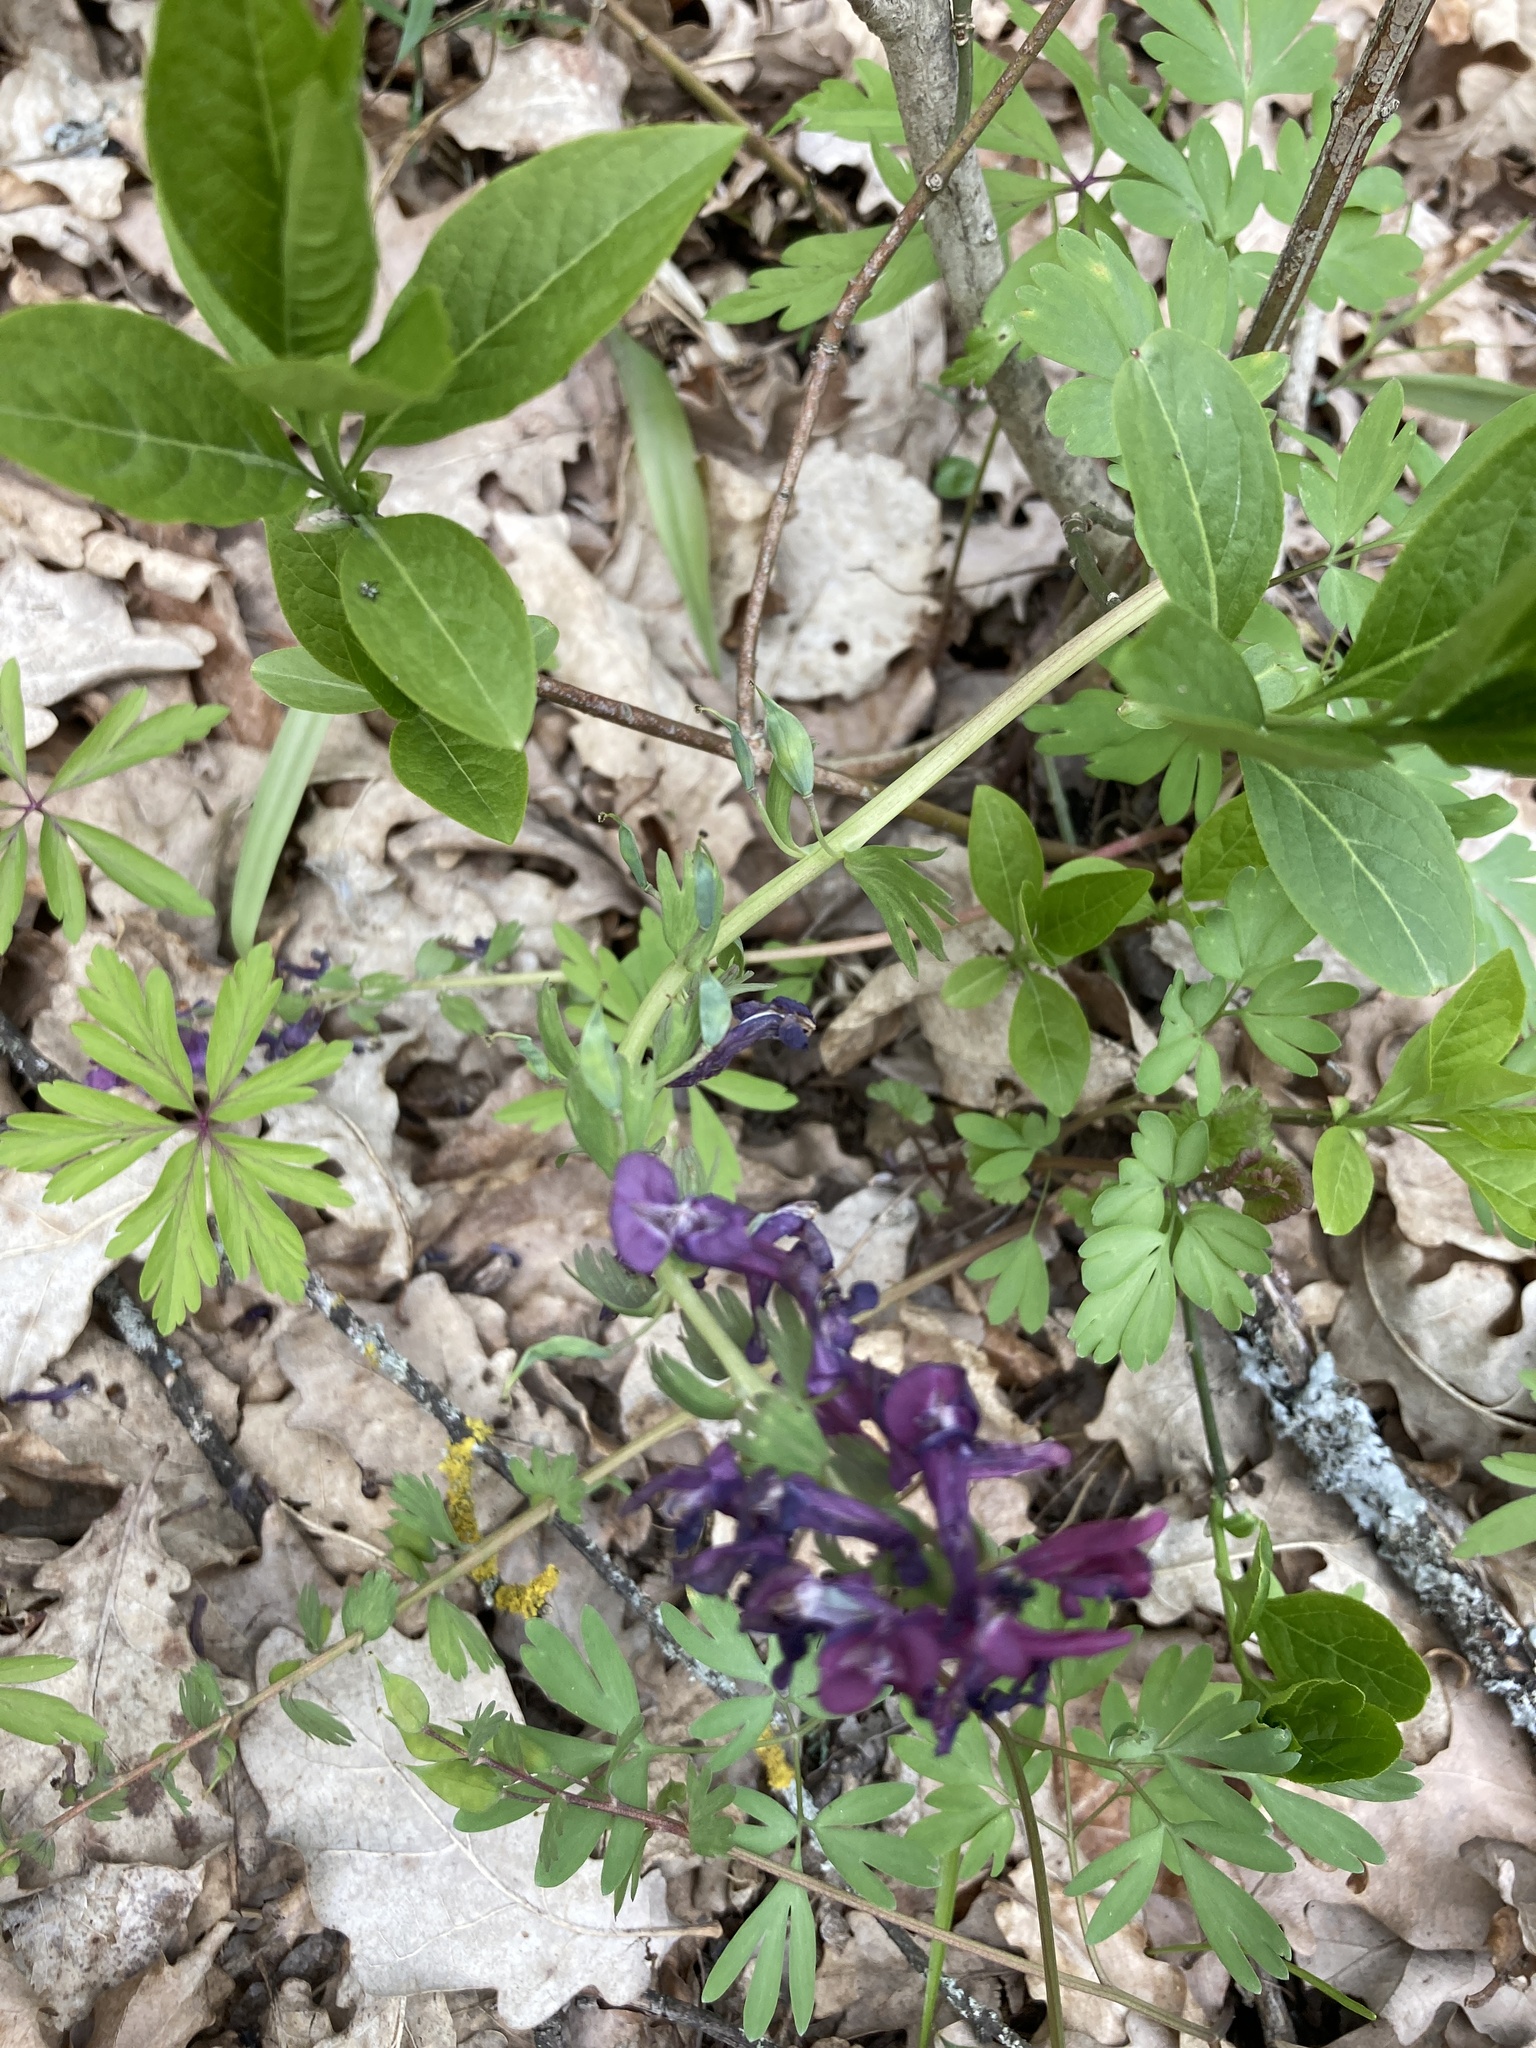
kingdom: Plantae
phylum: Tracheophyta
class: Magnoliopsida
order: Ranunculales
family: Papaveraceae
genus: Corydalis
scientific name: Corydalis solida
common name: Bird-in-a-bush
